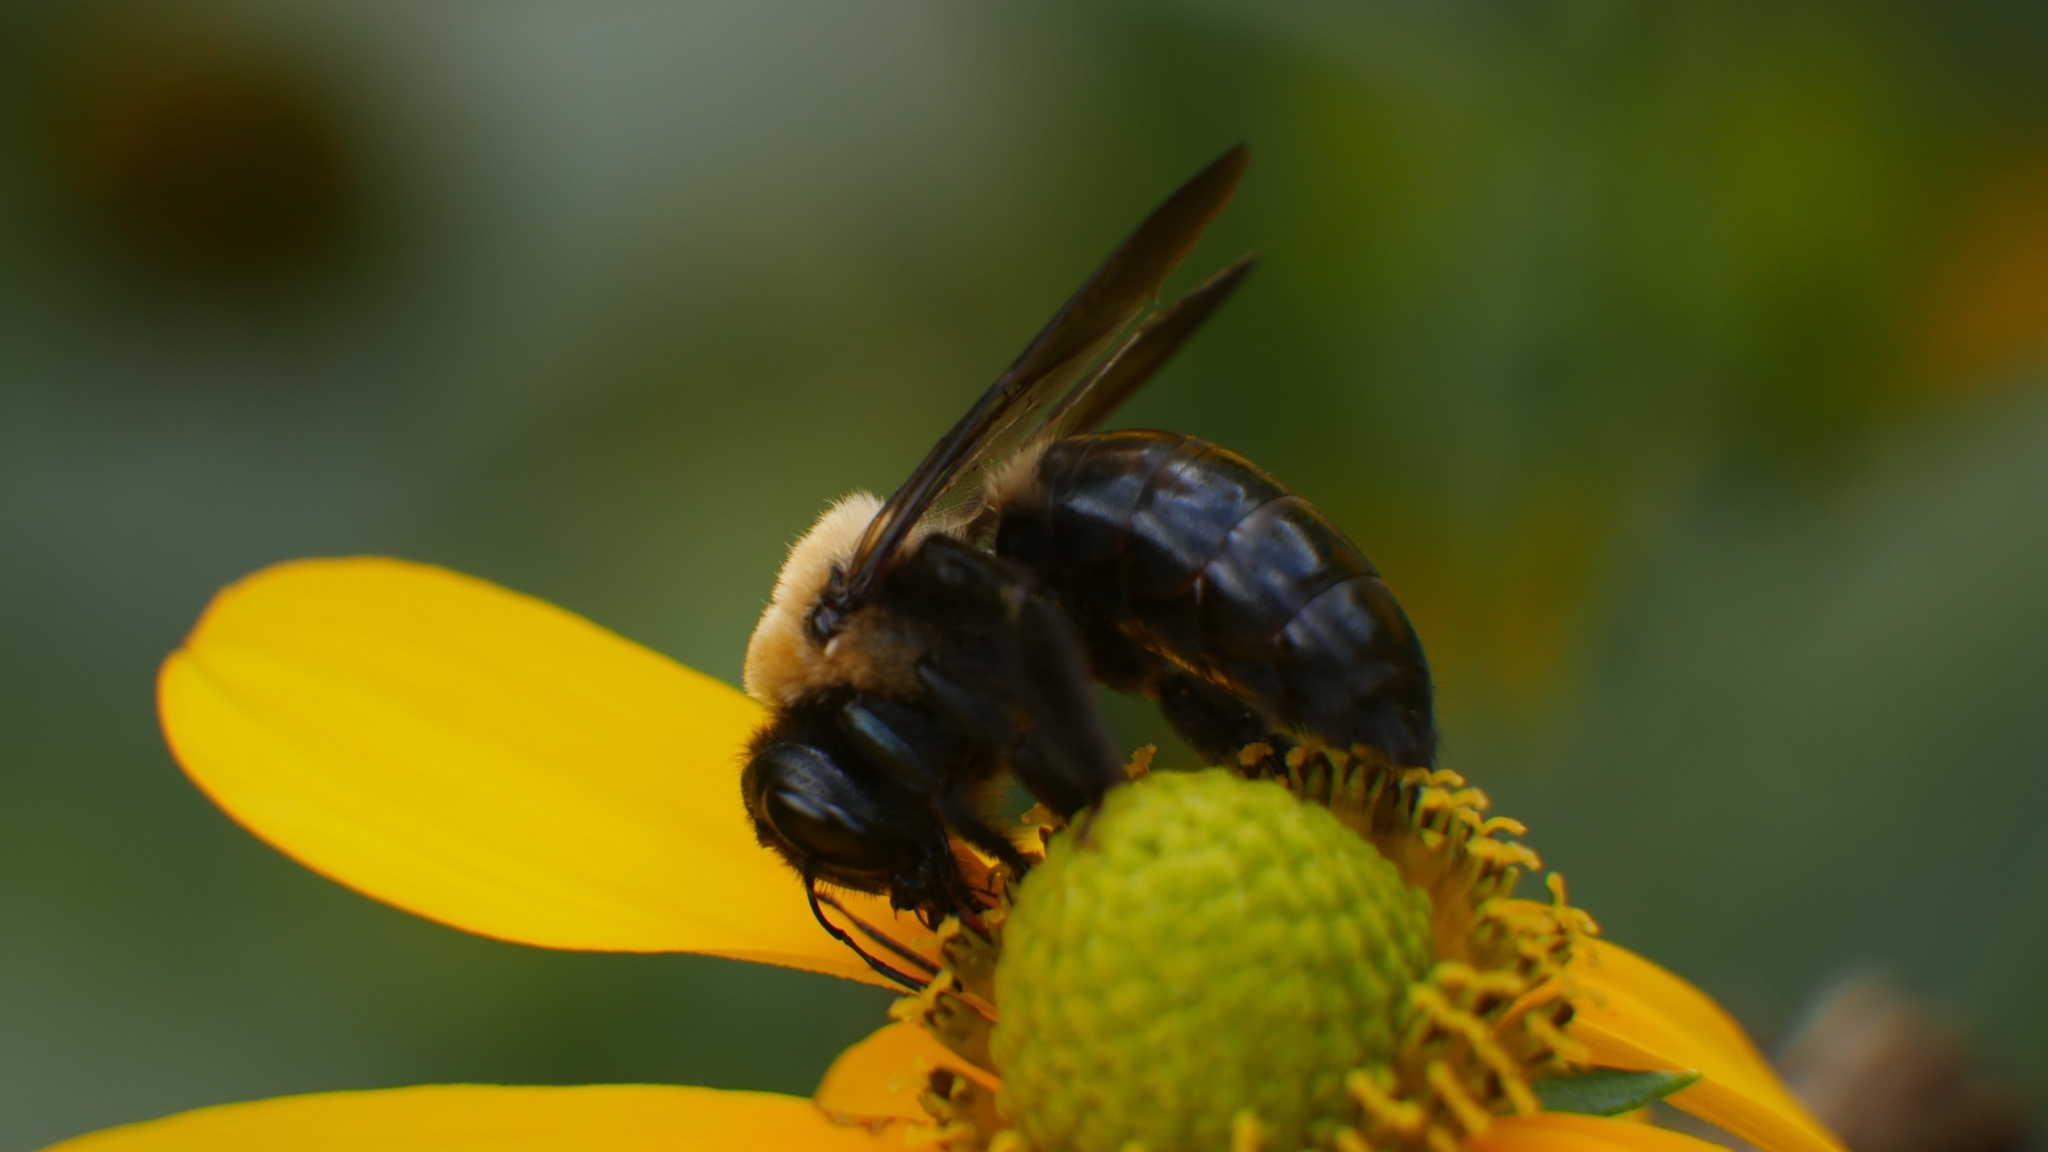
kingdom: Animalia
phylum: Arthropoda
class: Insecta
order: Hymenoptera
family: Apidae
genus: Xylocopa
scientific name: Xylocopa virginica
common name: Carpenter bee
